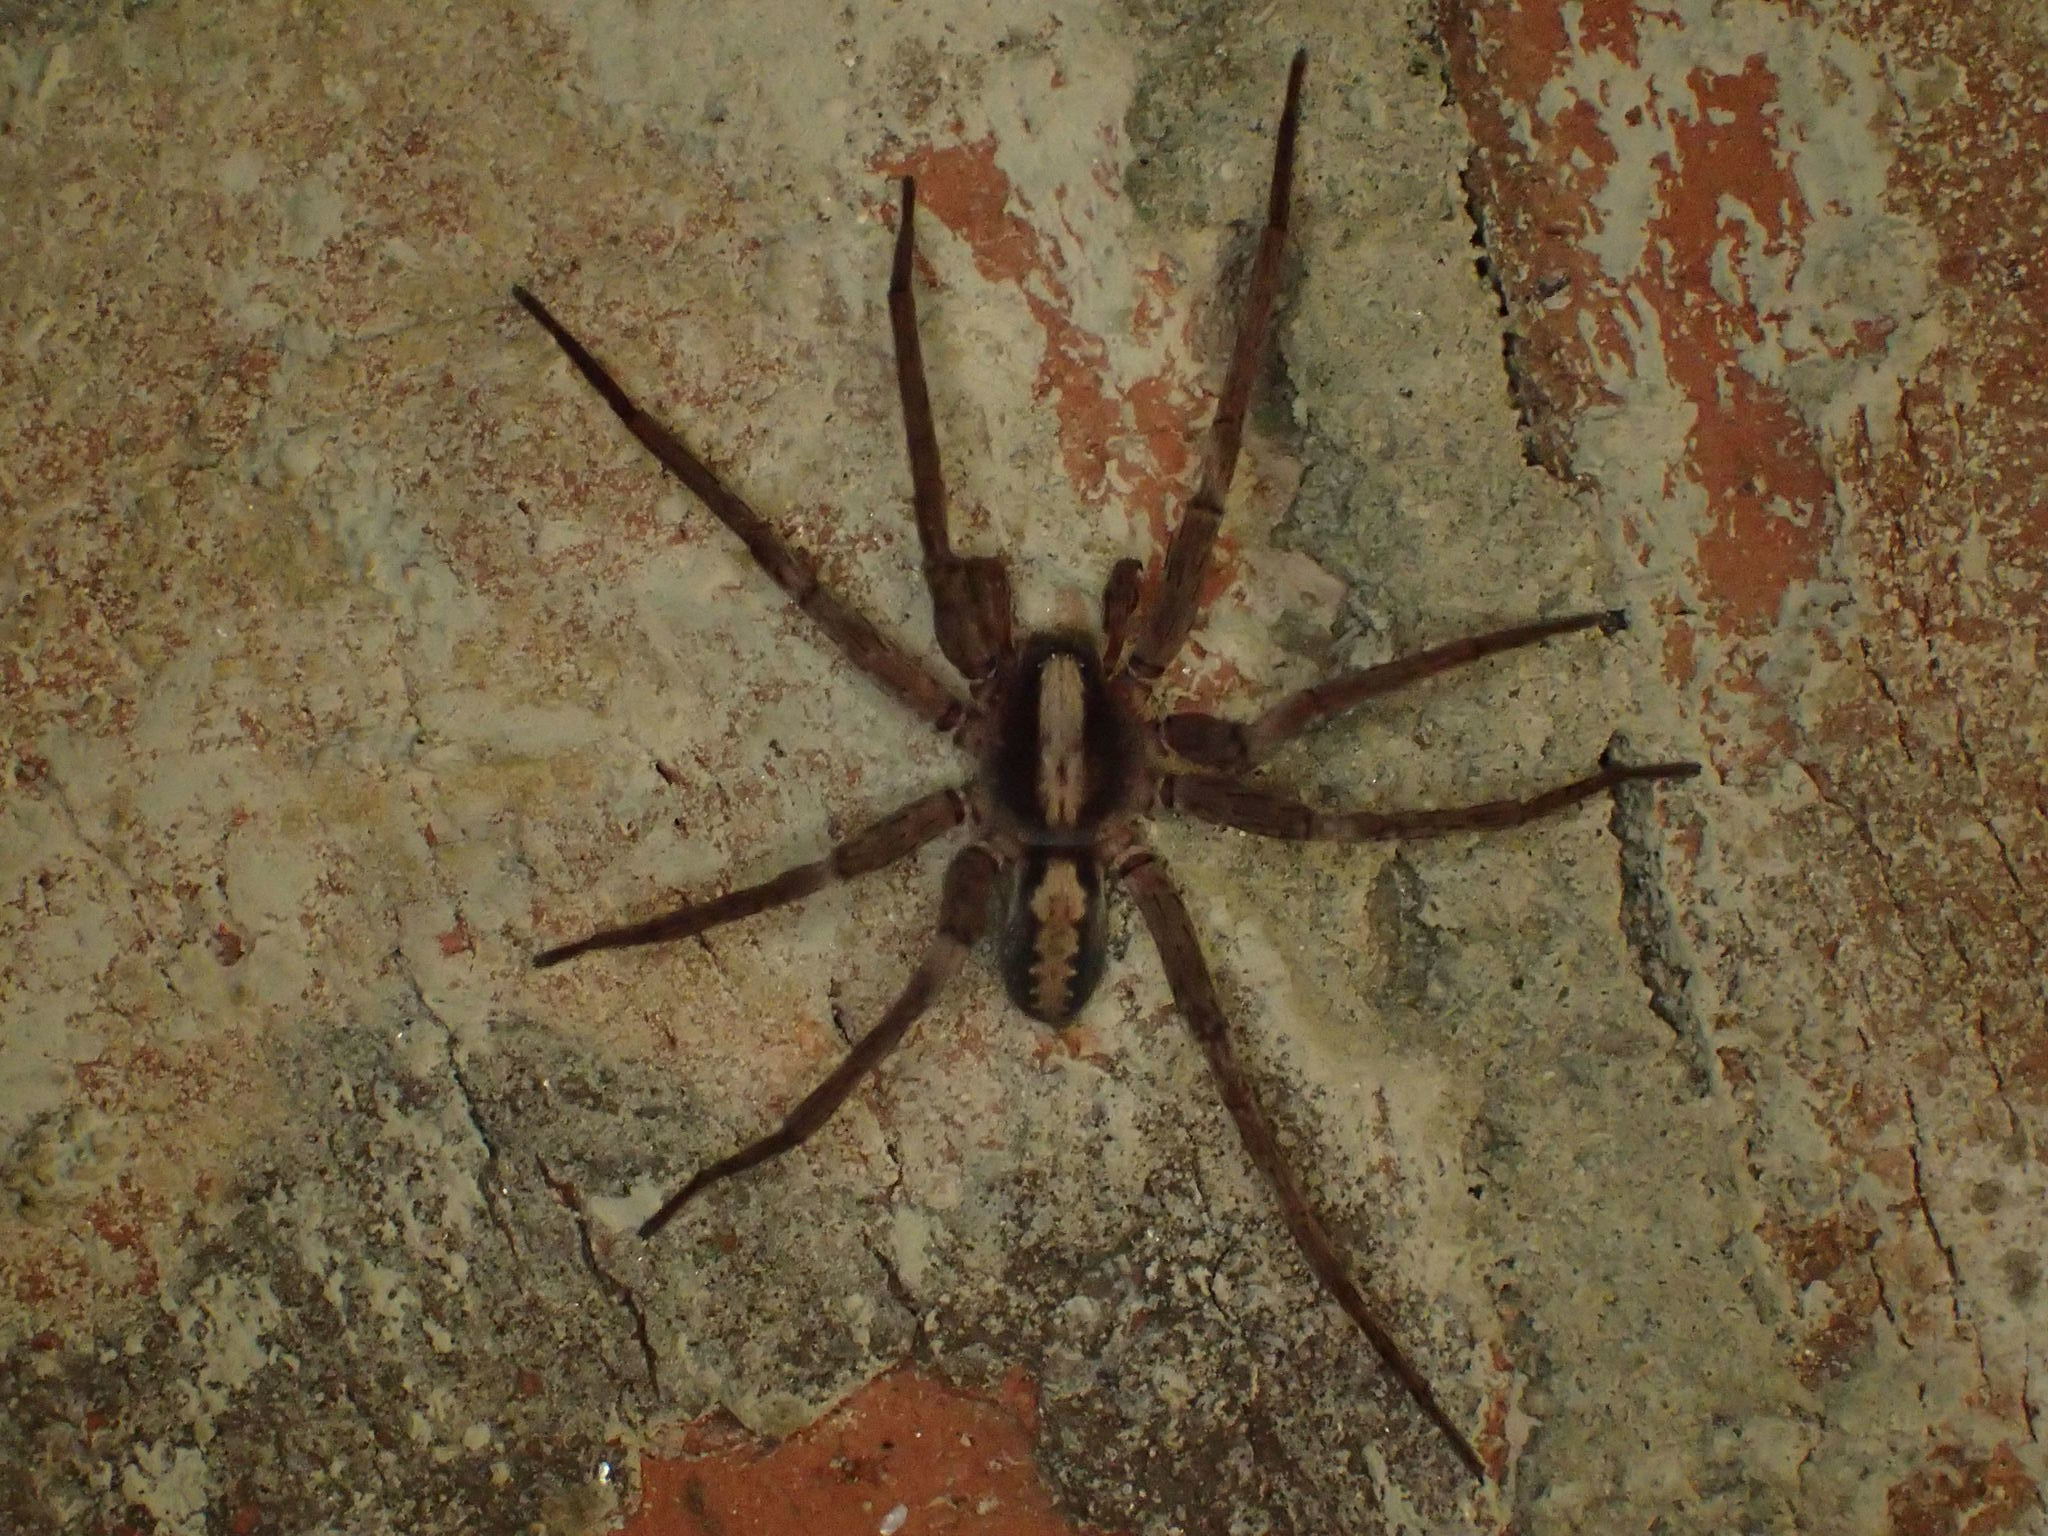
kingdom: Animalia
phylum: Arthropoda
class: Arachnida
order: Araneae
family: Ctenidae
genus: Ctenus
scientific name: Ctenus hibernalis
